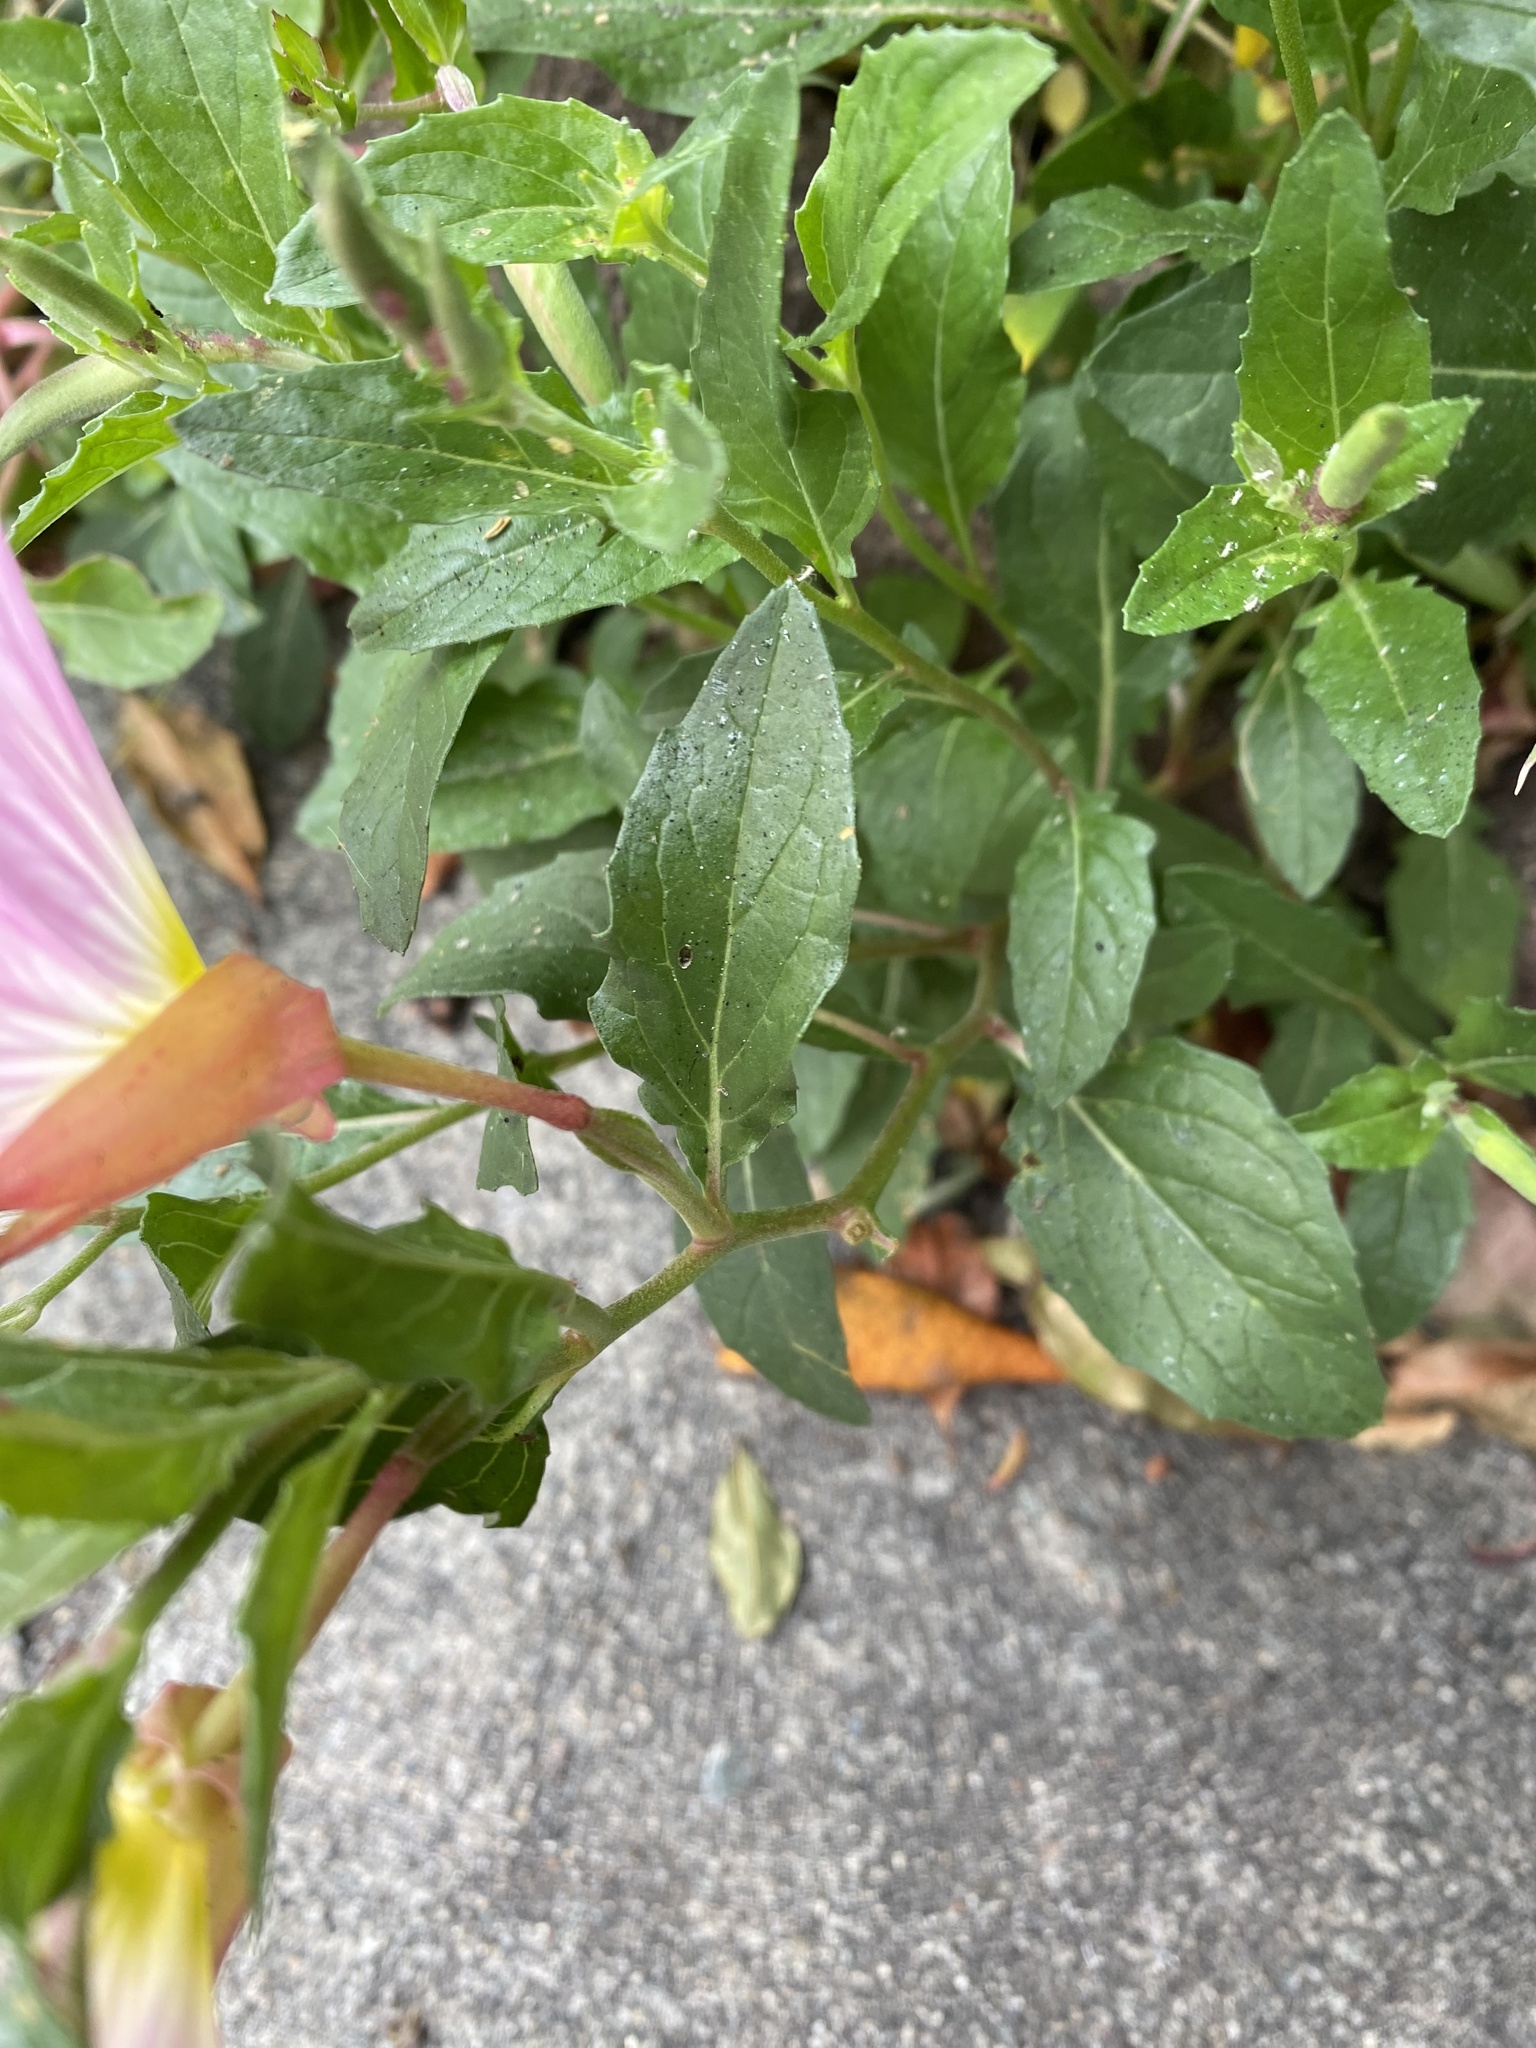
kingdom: Plantae
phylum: Tracheophyta
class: Magnoliopsida
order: Myrtales
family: Onagraceae
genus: Oenothera
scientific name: Oenothera speciosa
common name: White evening-primrose
